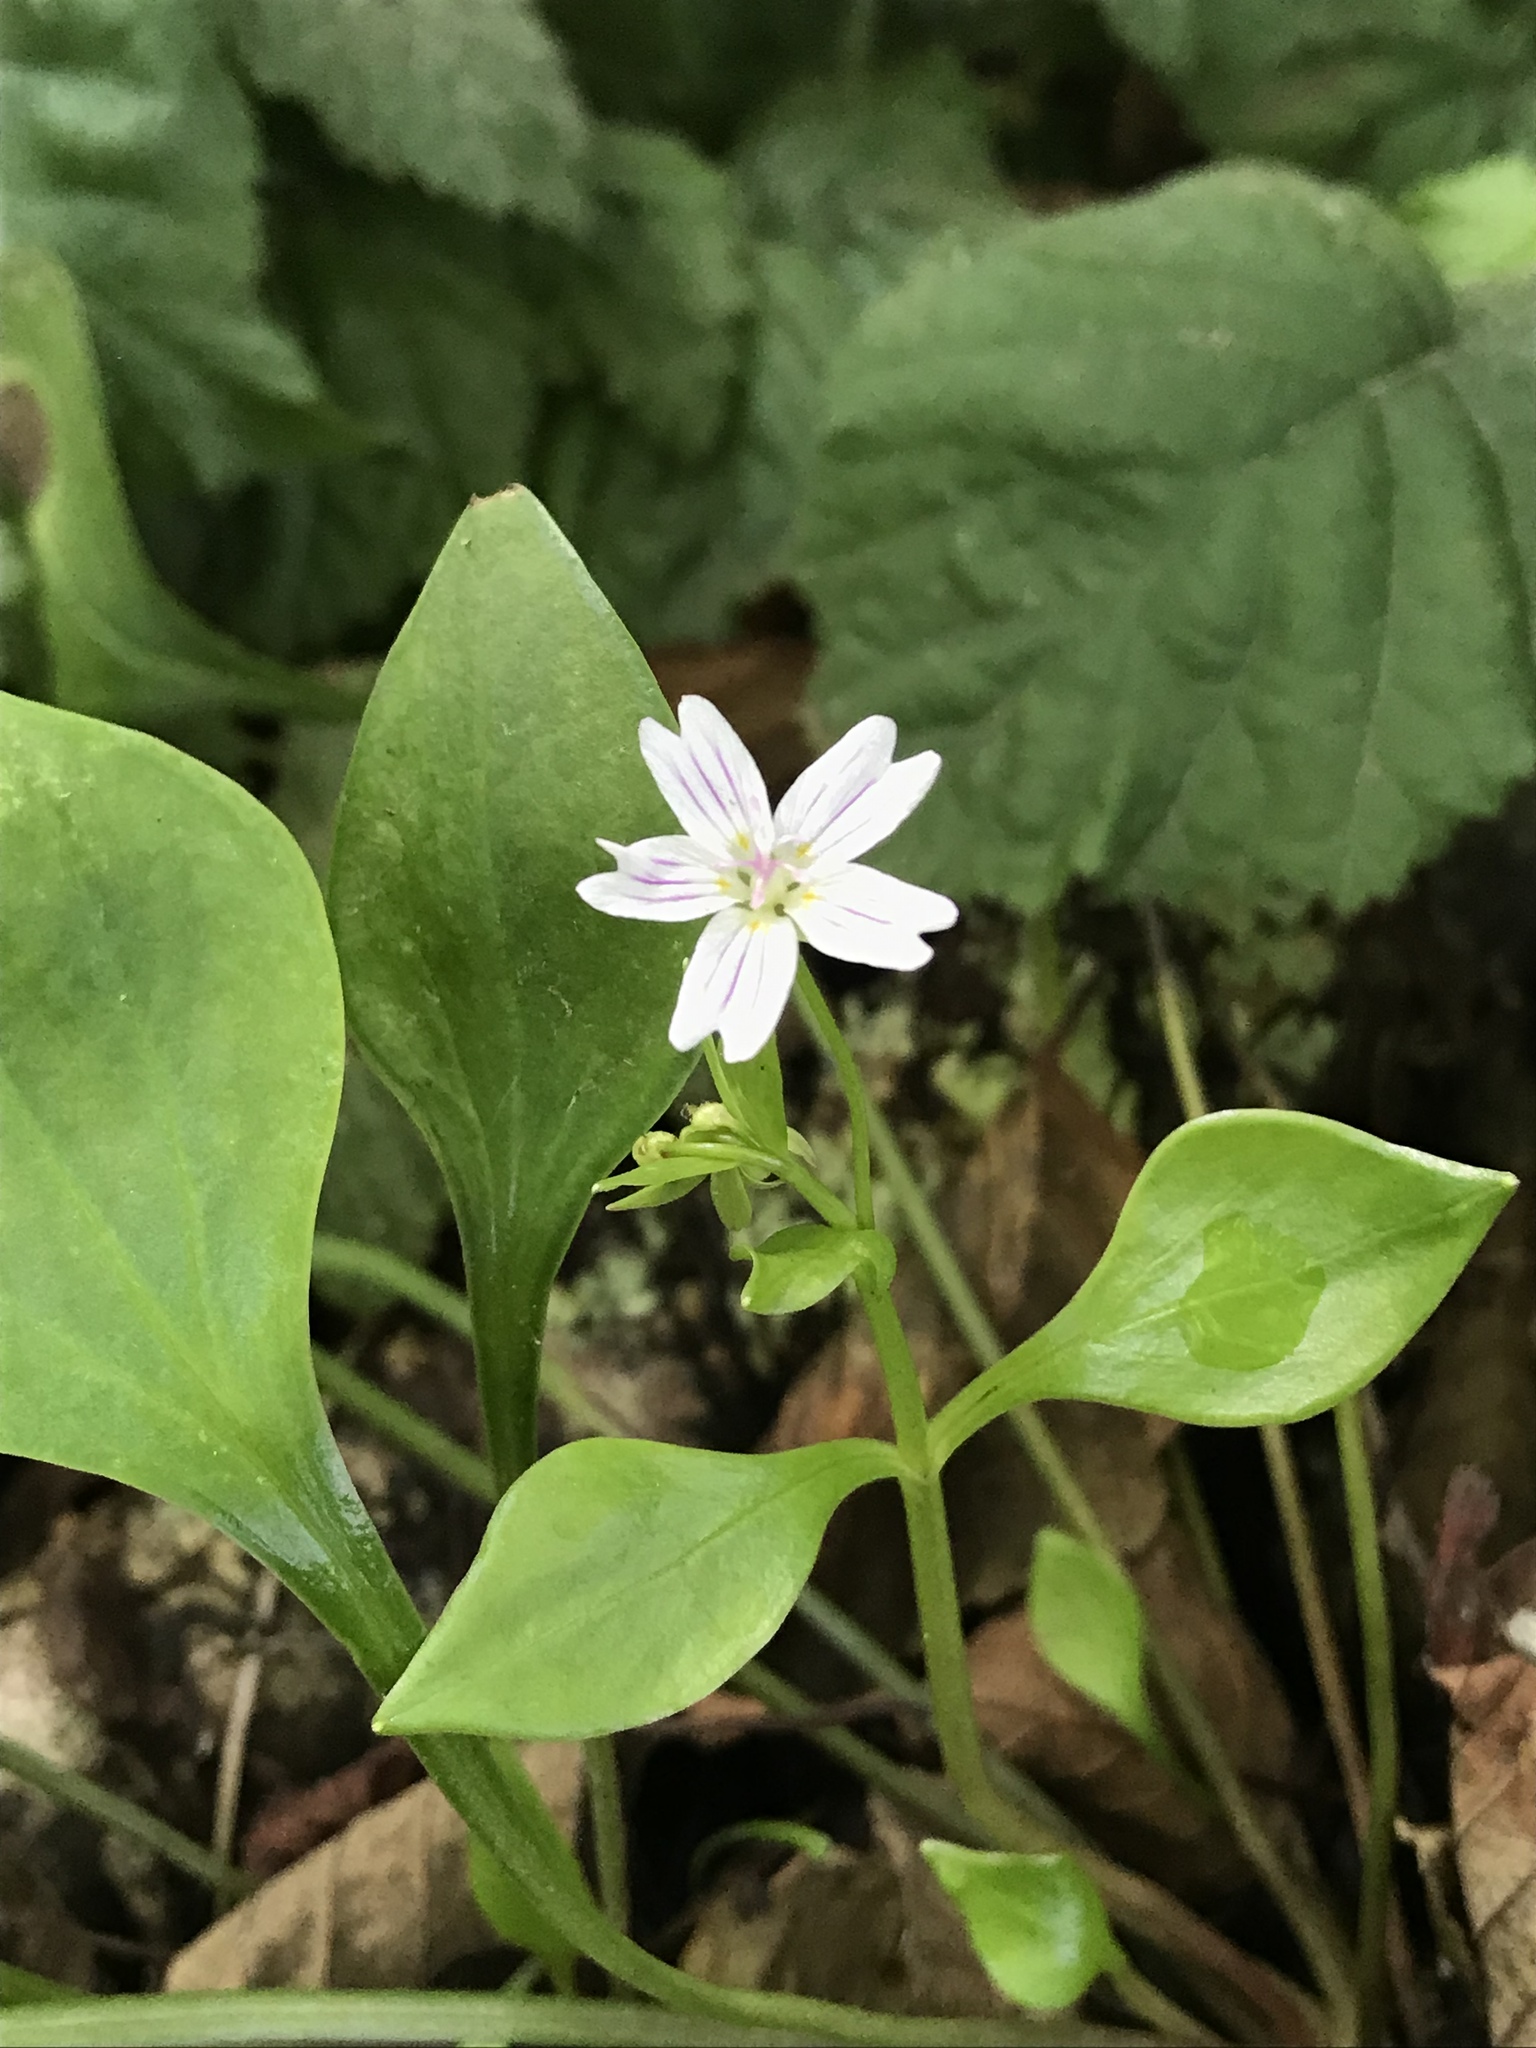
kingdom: Plantae
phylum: Tracheophyta
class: Magnoliopsida
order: Caryophyllales
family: Montiaceae
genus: Claytonia
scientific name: Claytonia sibirica
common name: Pink purslane
